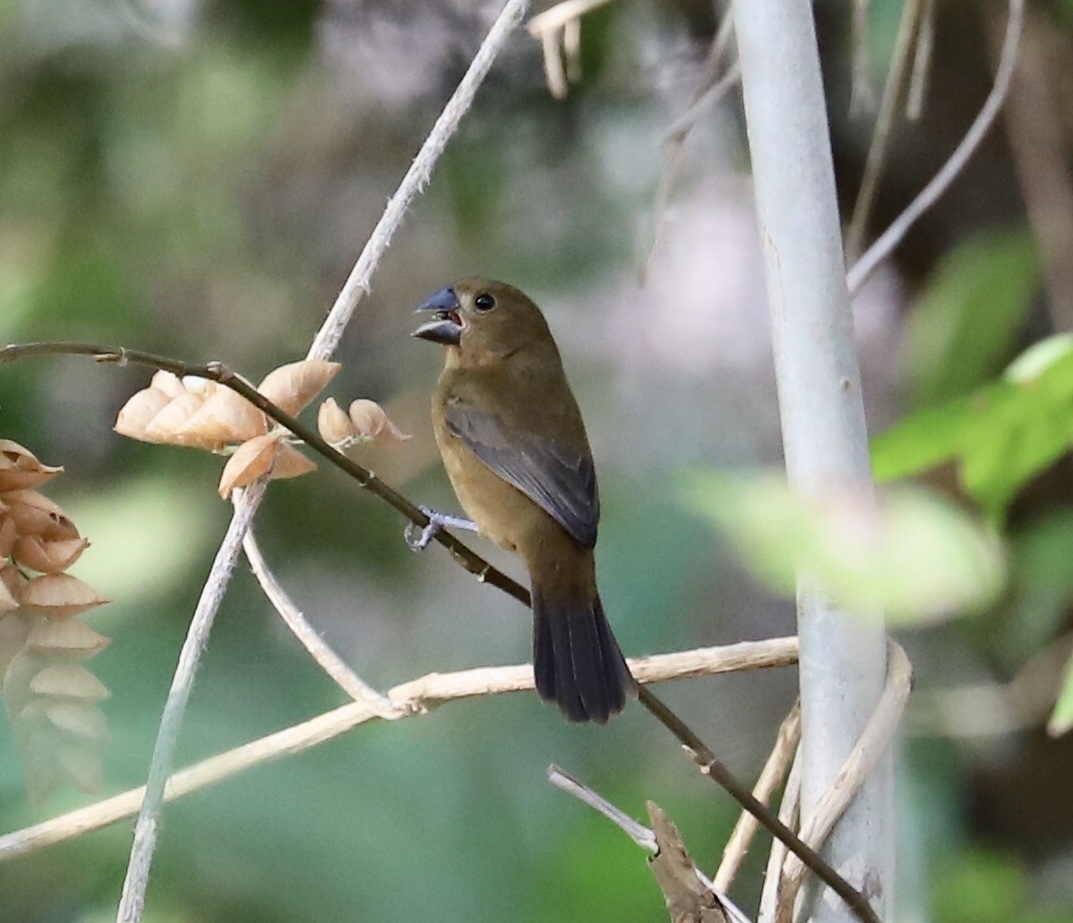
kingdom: Animalia
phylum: Chordata
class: Aves
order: Passeriformes
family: Thraupidae
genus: Sporophila
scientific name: Sporophila funerea
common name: Thick-billed seed-finch
